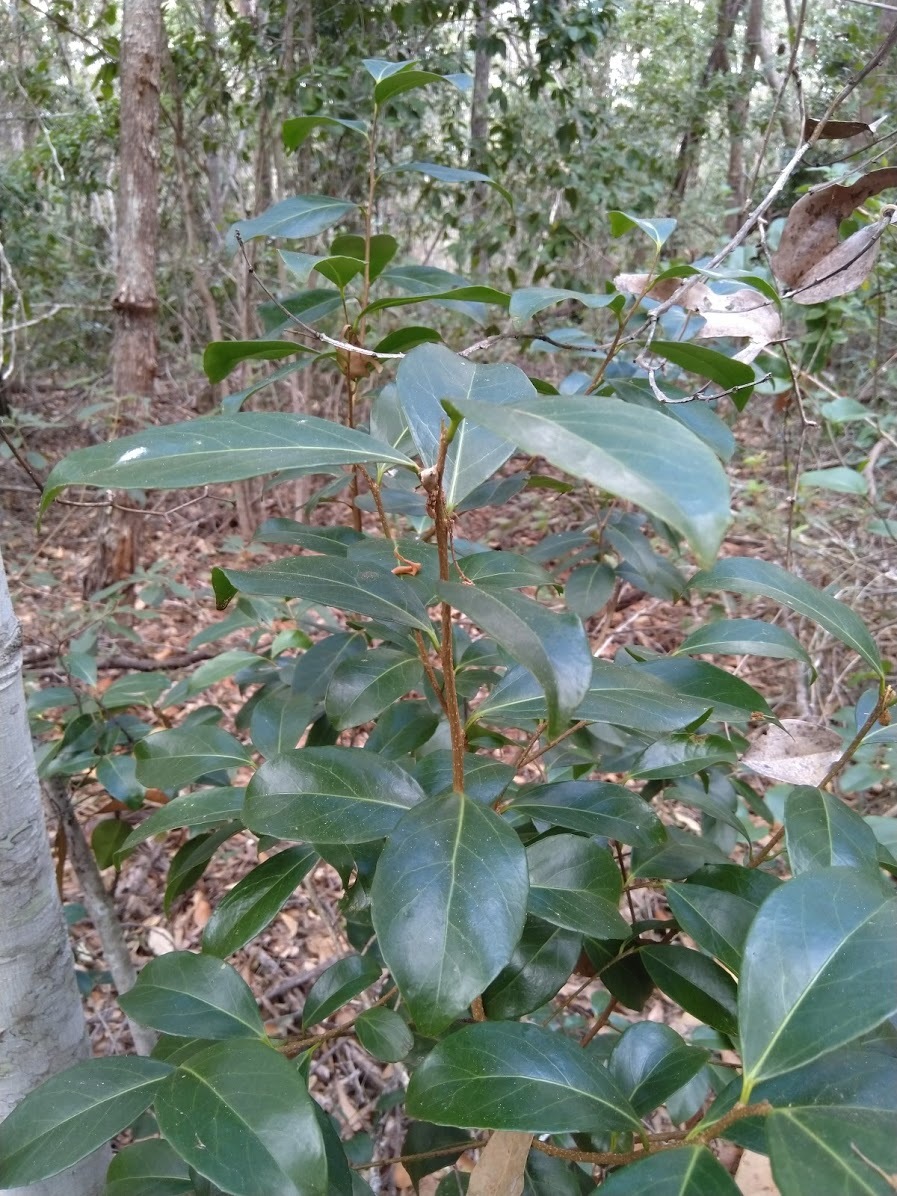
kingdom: Plantae
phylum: Tracheophyta
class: Magnoliopsida
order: Malpighiales
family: Salicaceae
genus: Xylosma
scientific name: Xylosma terrae-reginae
